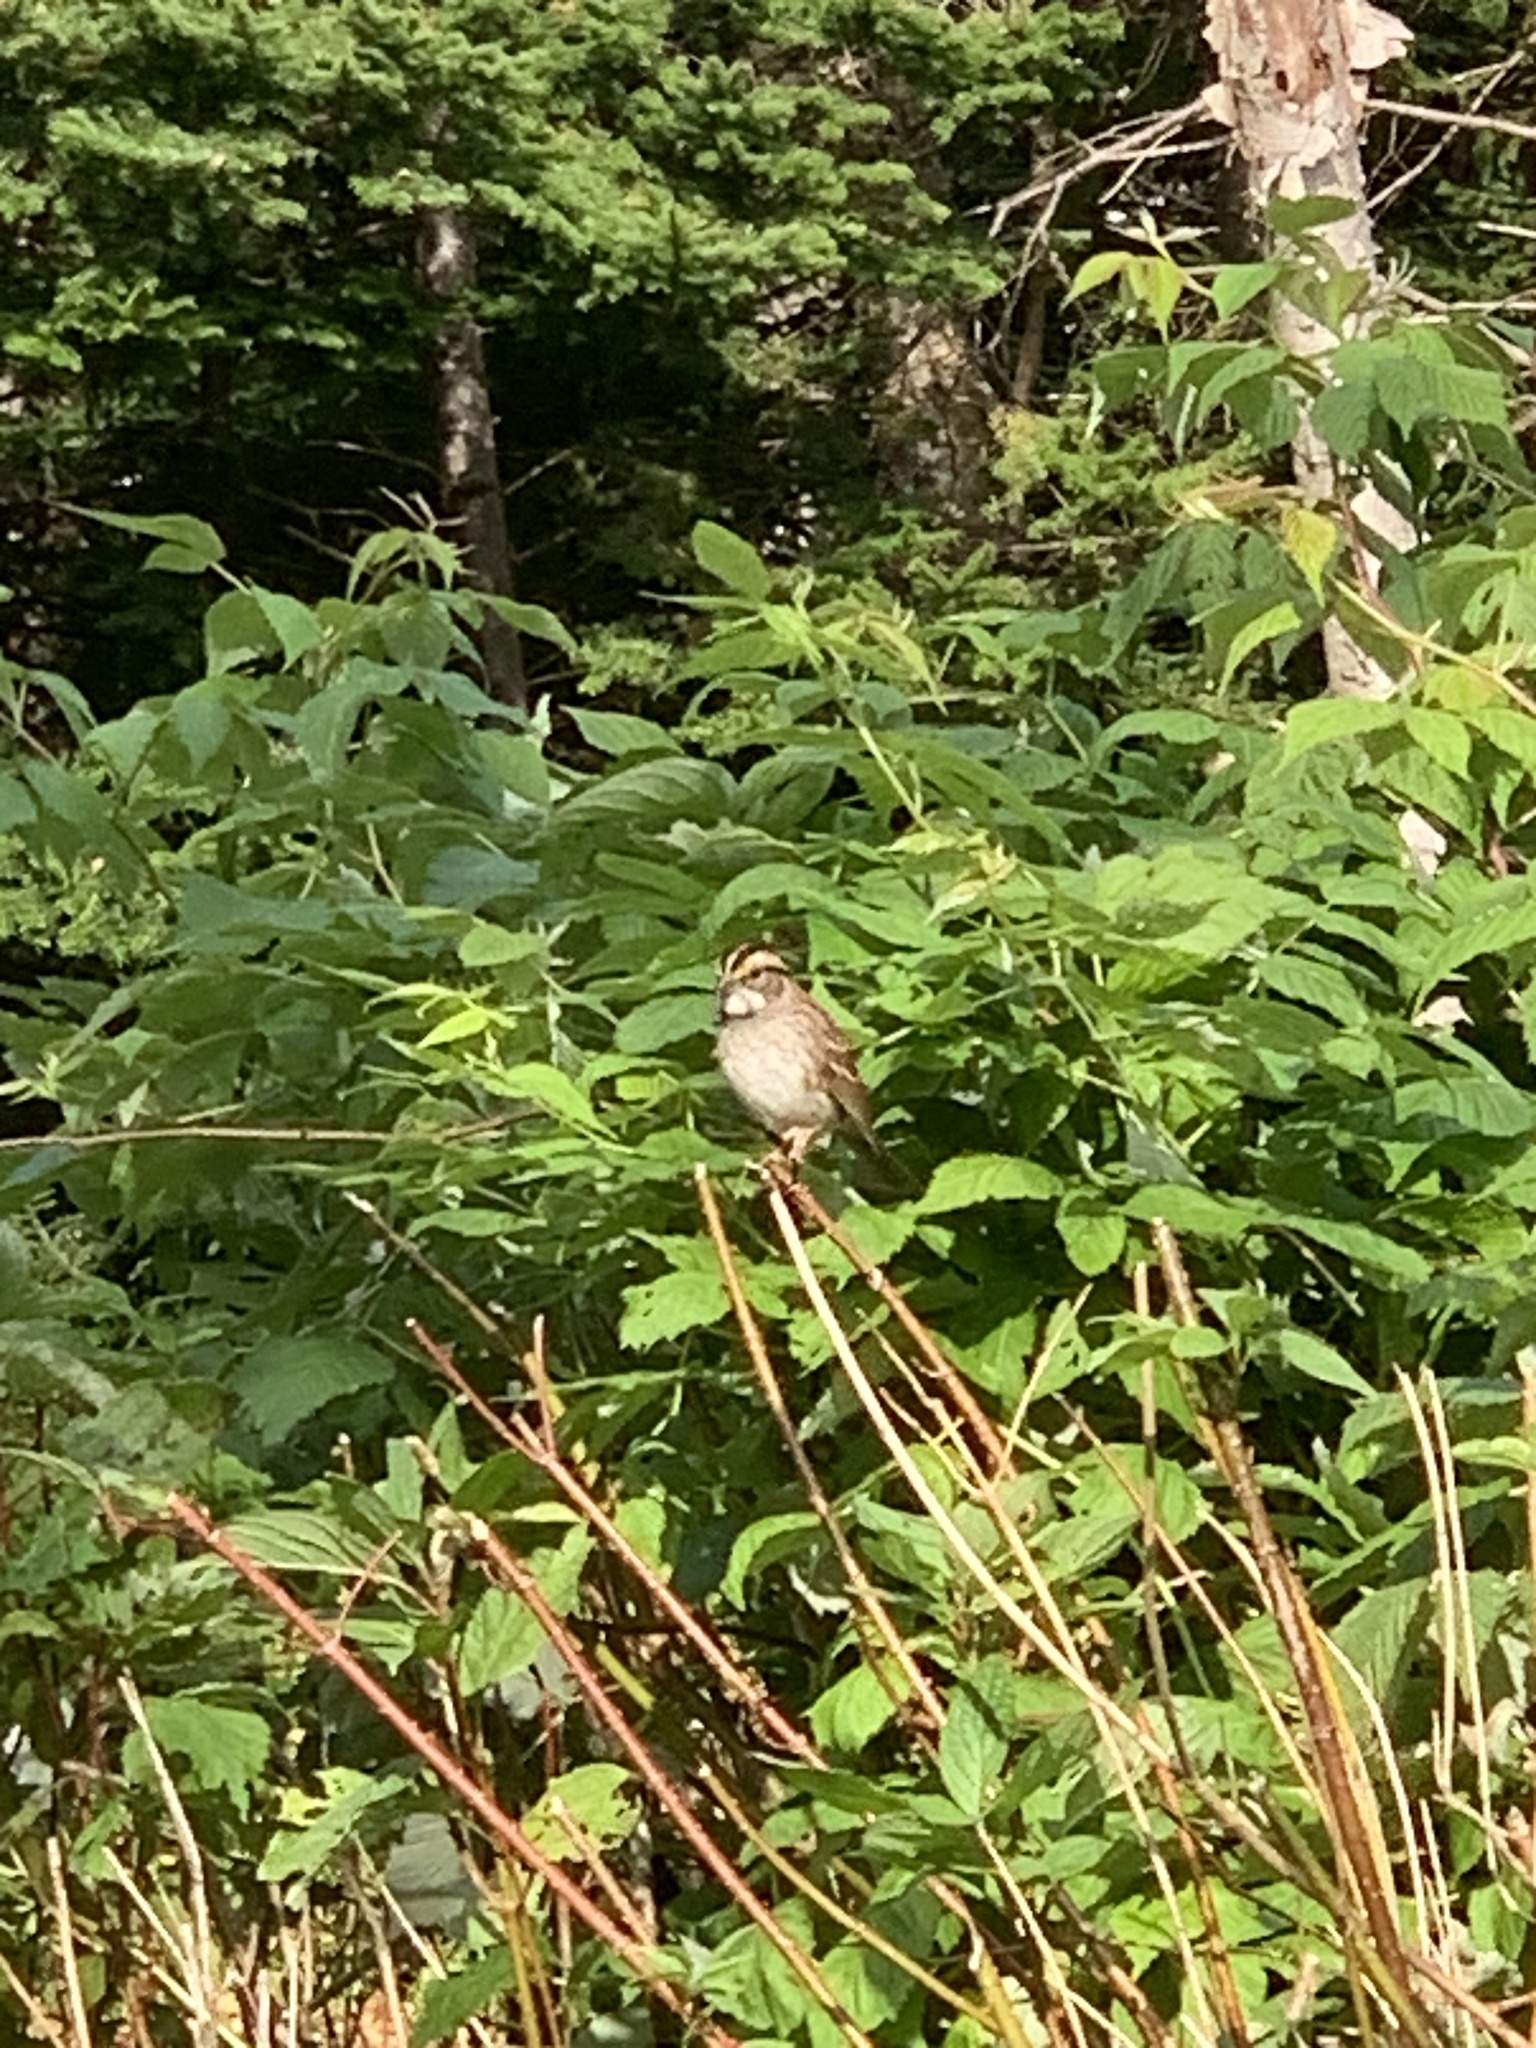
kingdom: Animalia
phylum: Chordata
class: Aves
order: Passeriformes
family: Passerellidae
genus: Zonotrichia
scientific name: Zonotrichia albicollis
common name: White-throated sparrow
